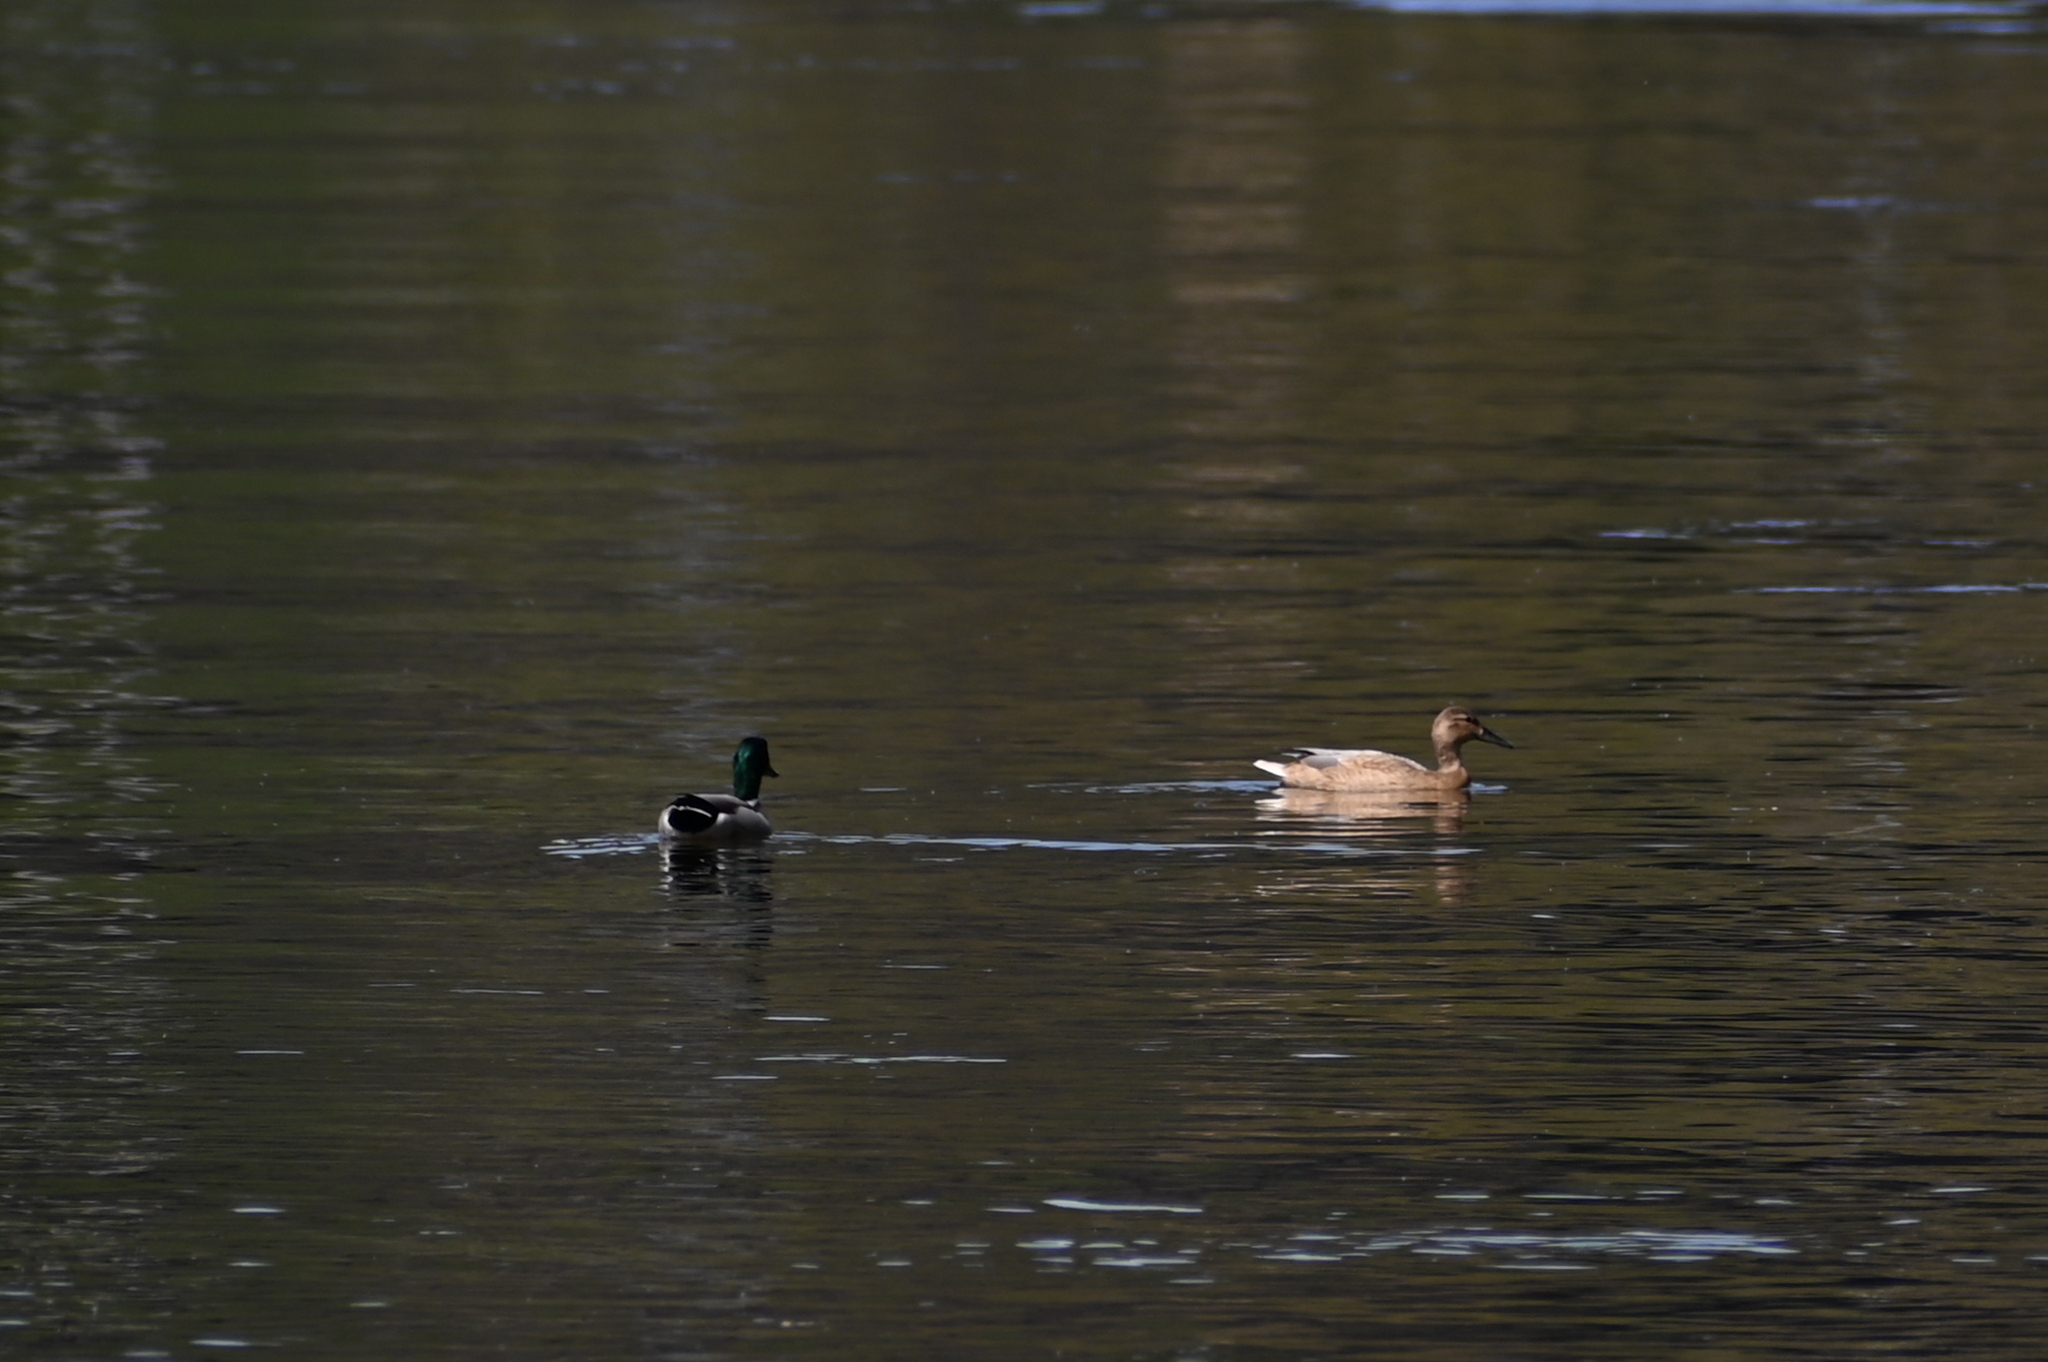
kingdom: Animalia
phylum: Chordata
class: Aves
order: Anseriformes
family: Anatidae
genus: Anas
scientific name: Anas platyrhynchos
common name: Mallard
